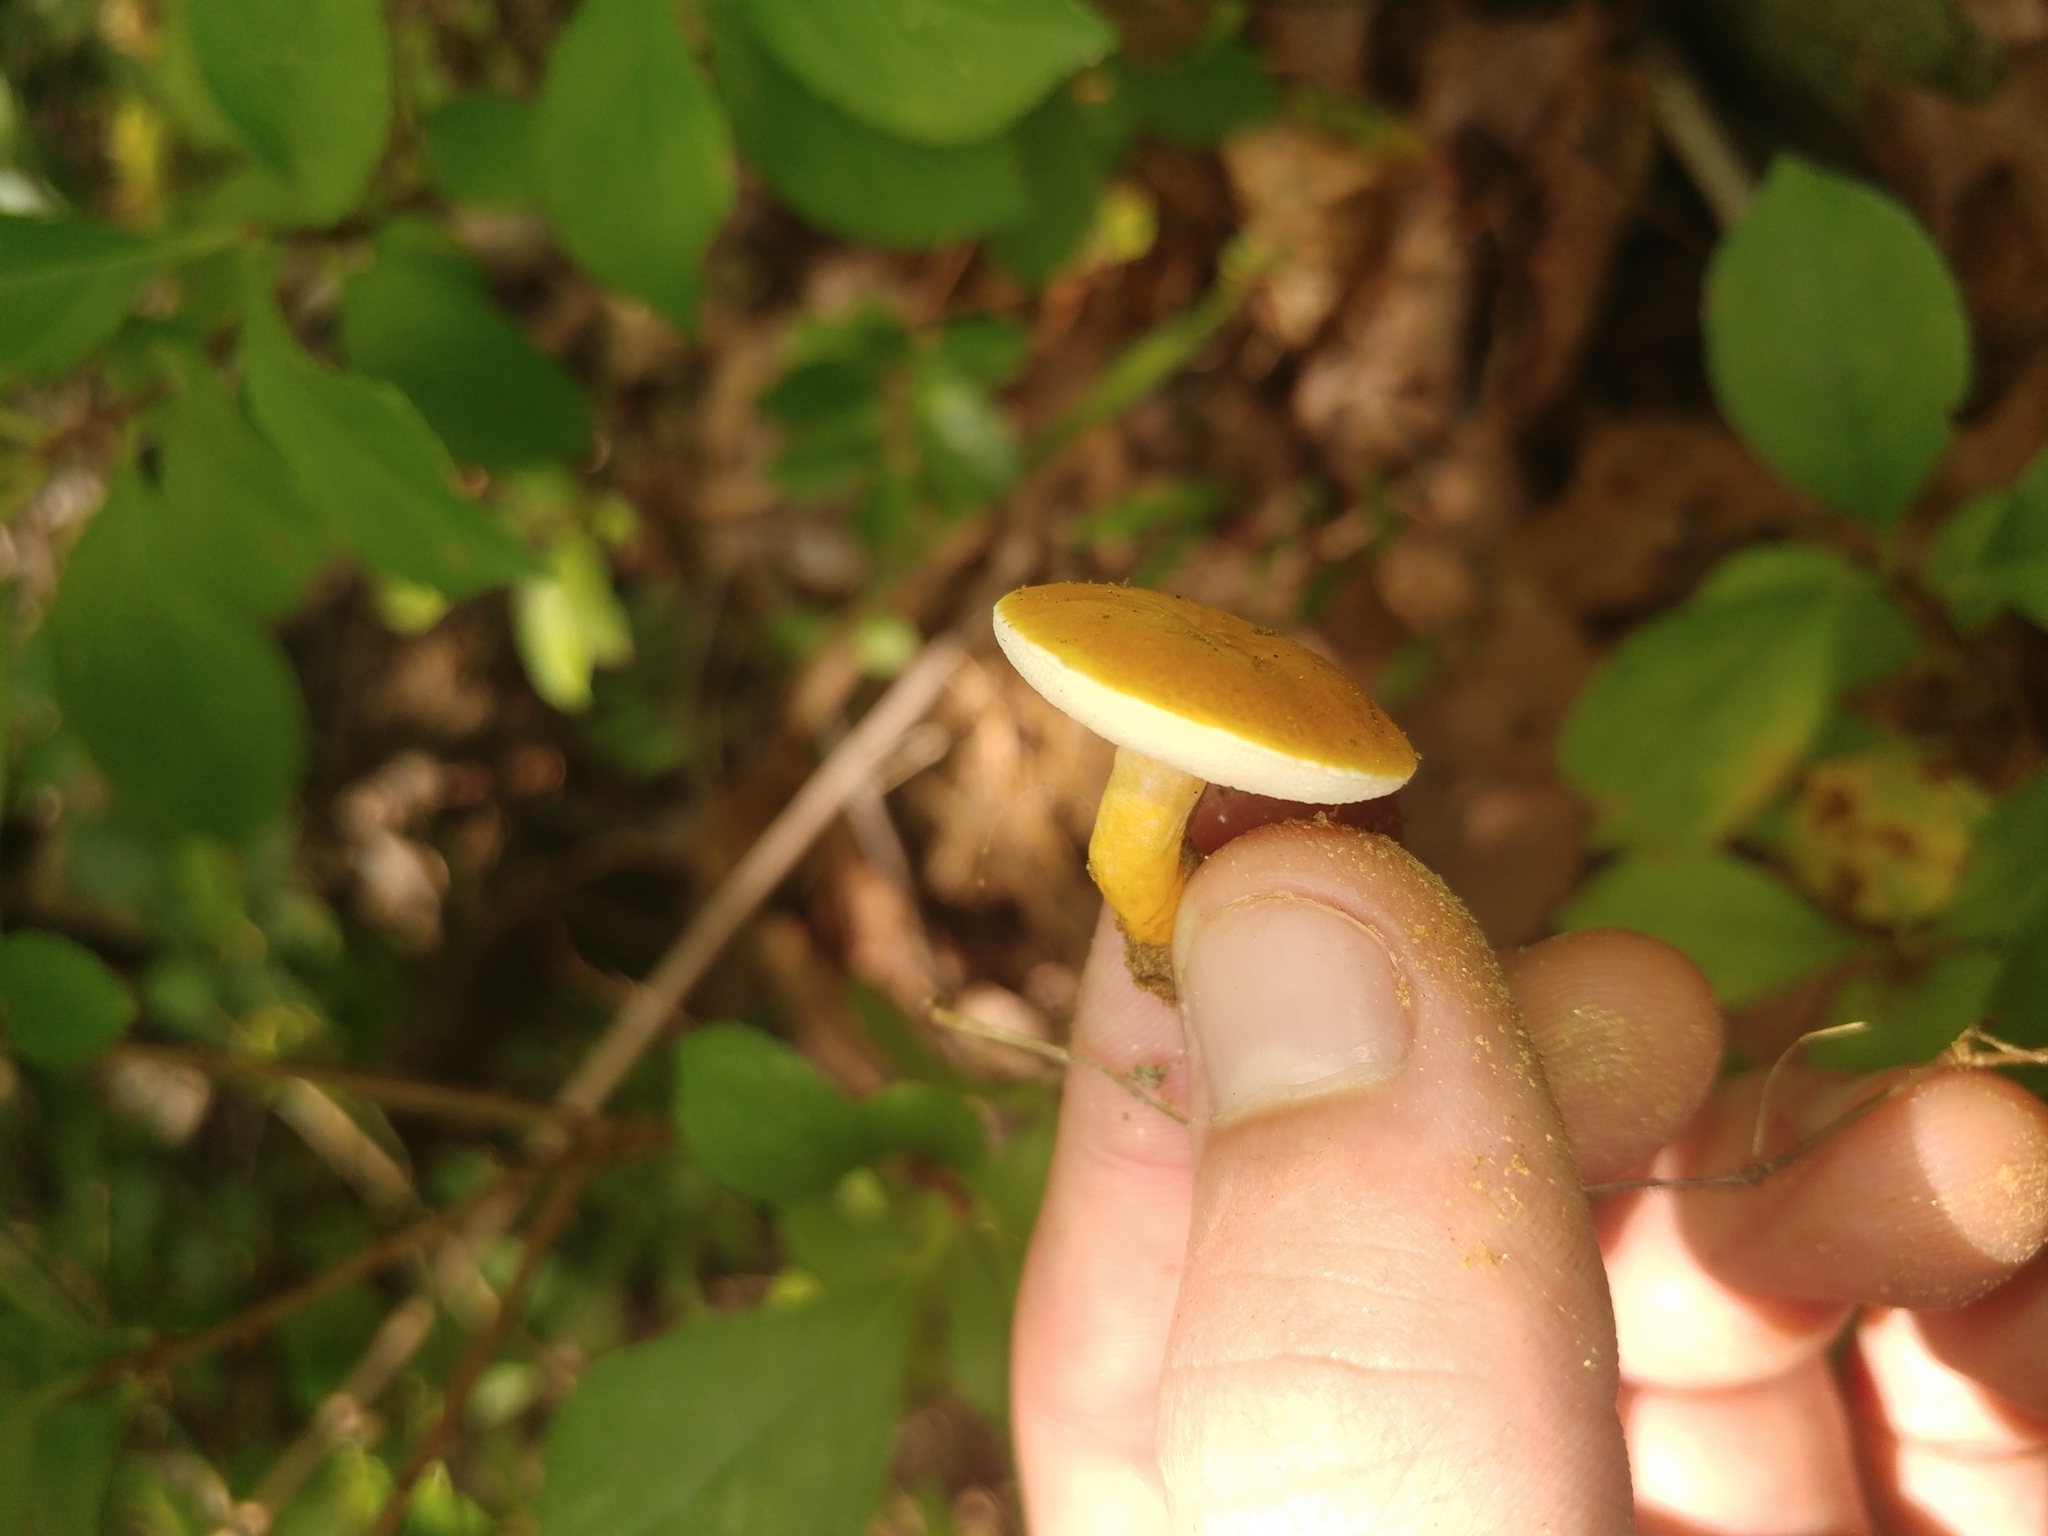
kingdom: Fungi
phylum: Basidiomycota
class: Agaricomycetes
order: Boletales
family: Gyroporaceae
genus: Gyroporus
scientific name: Gyroporus castaneus
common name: Chestnut bolete
